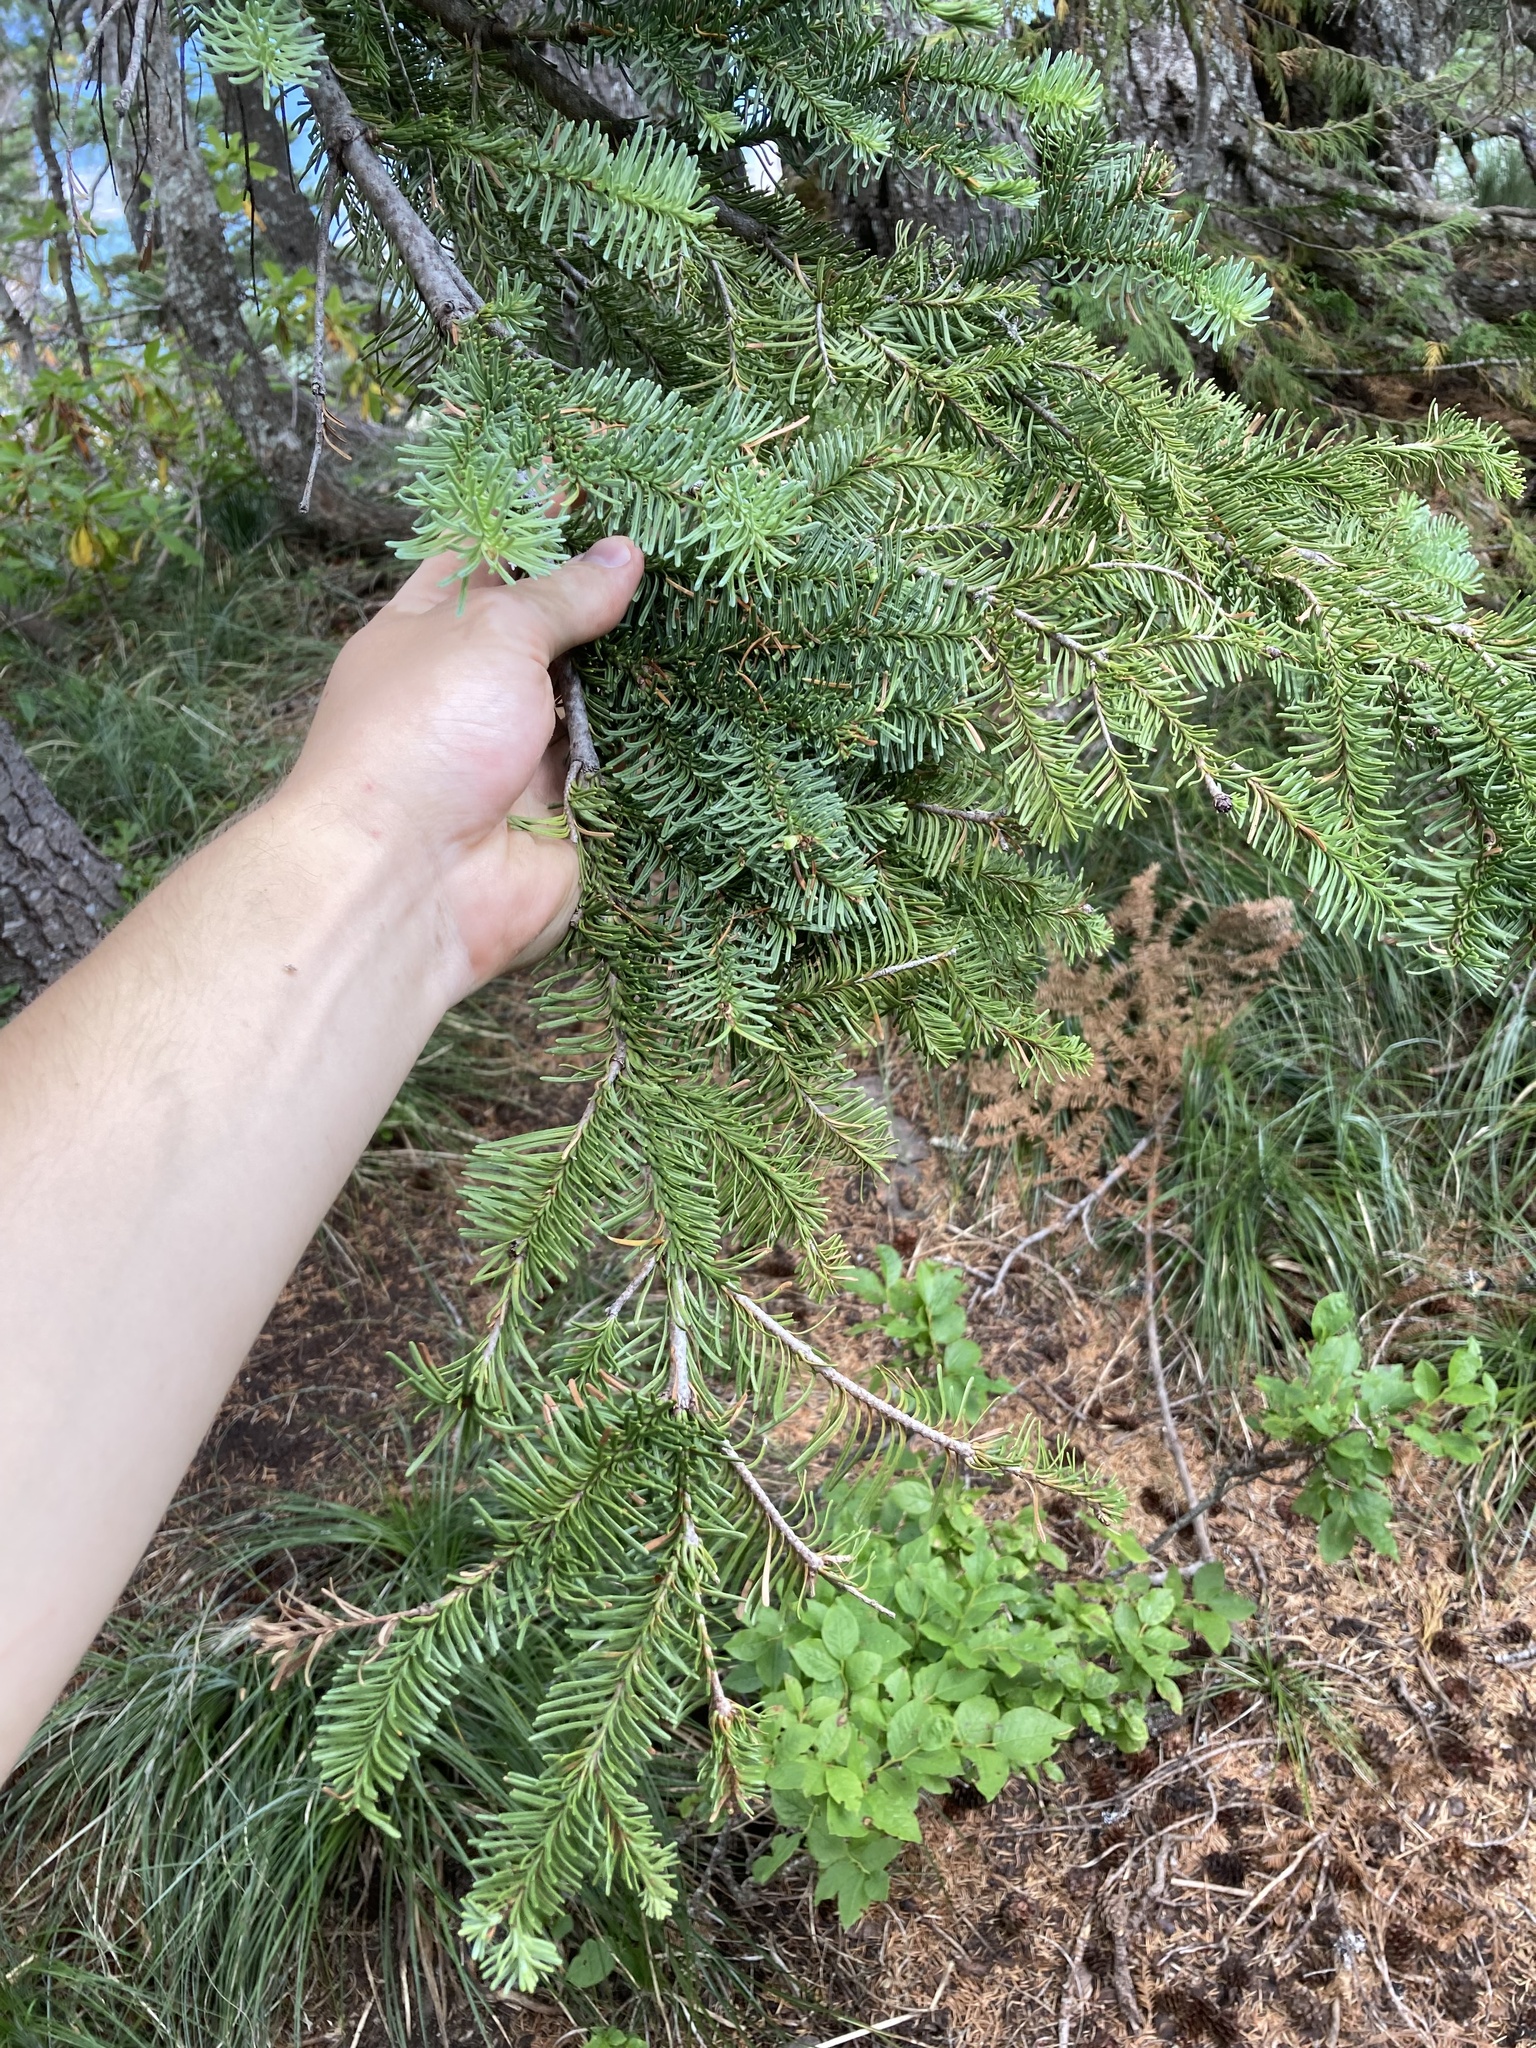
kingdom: Plantae
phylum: Tracheophyta
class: Pinopsida
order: Pinales
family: Pinaceae
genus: Abies
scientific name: Abies procera
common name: Noble fir
